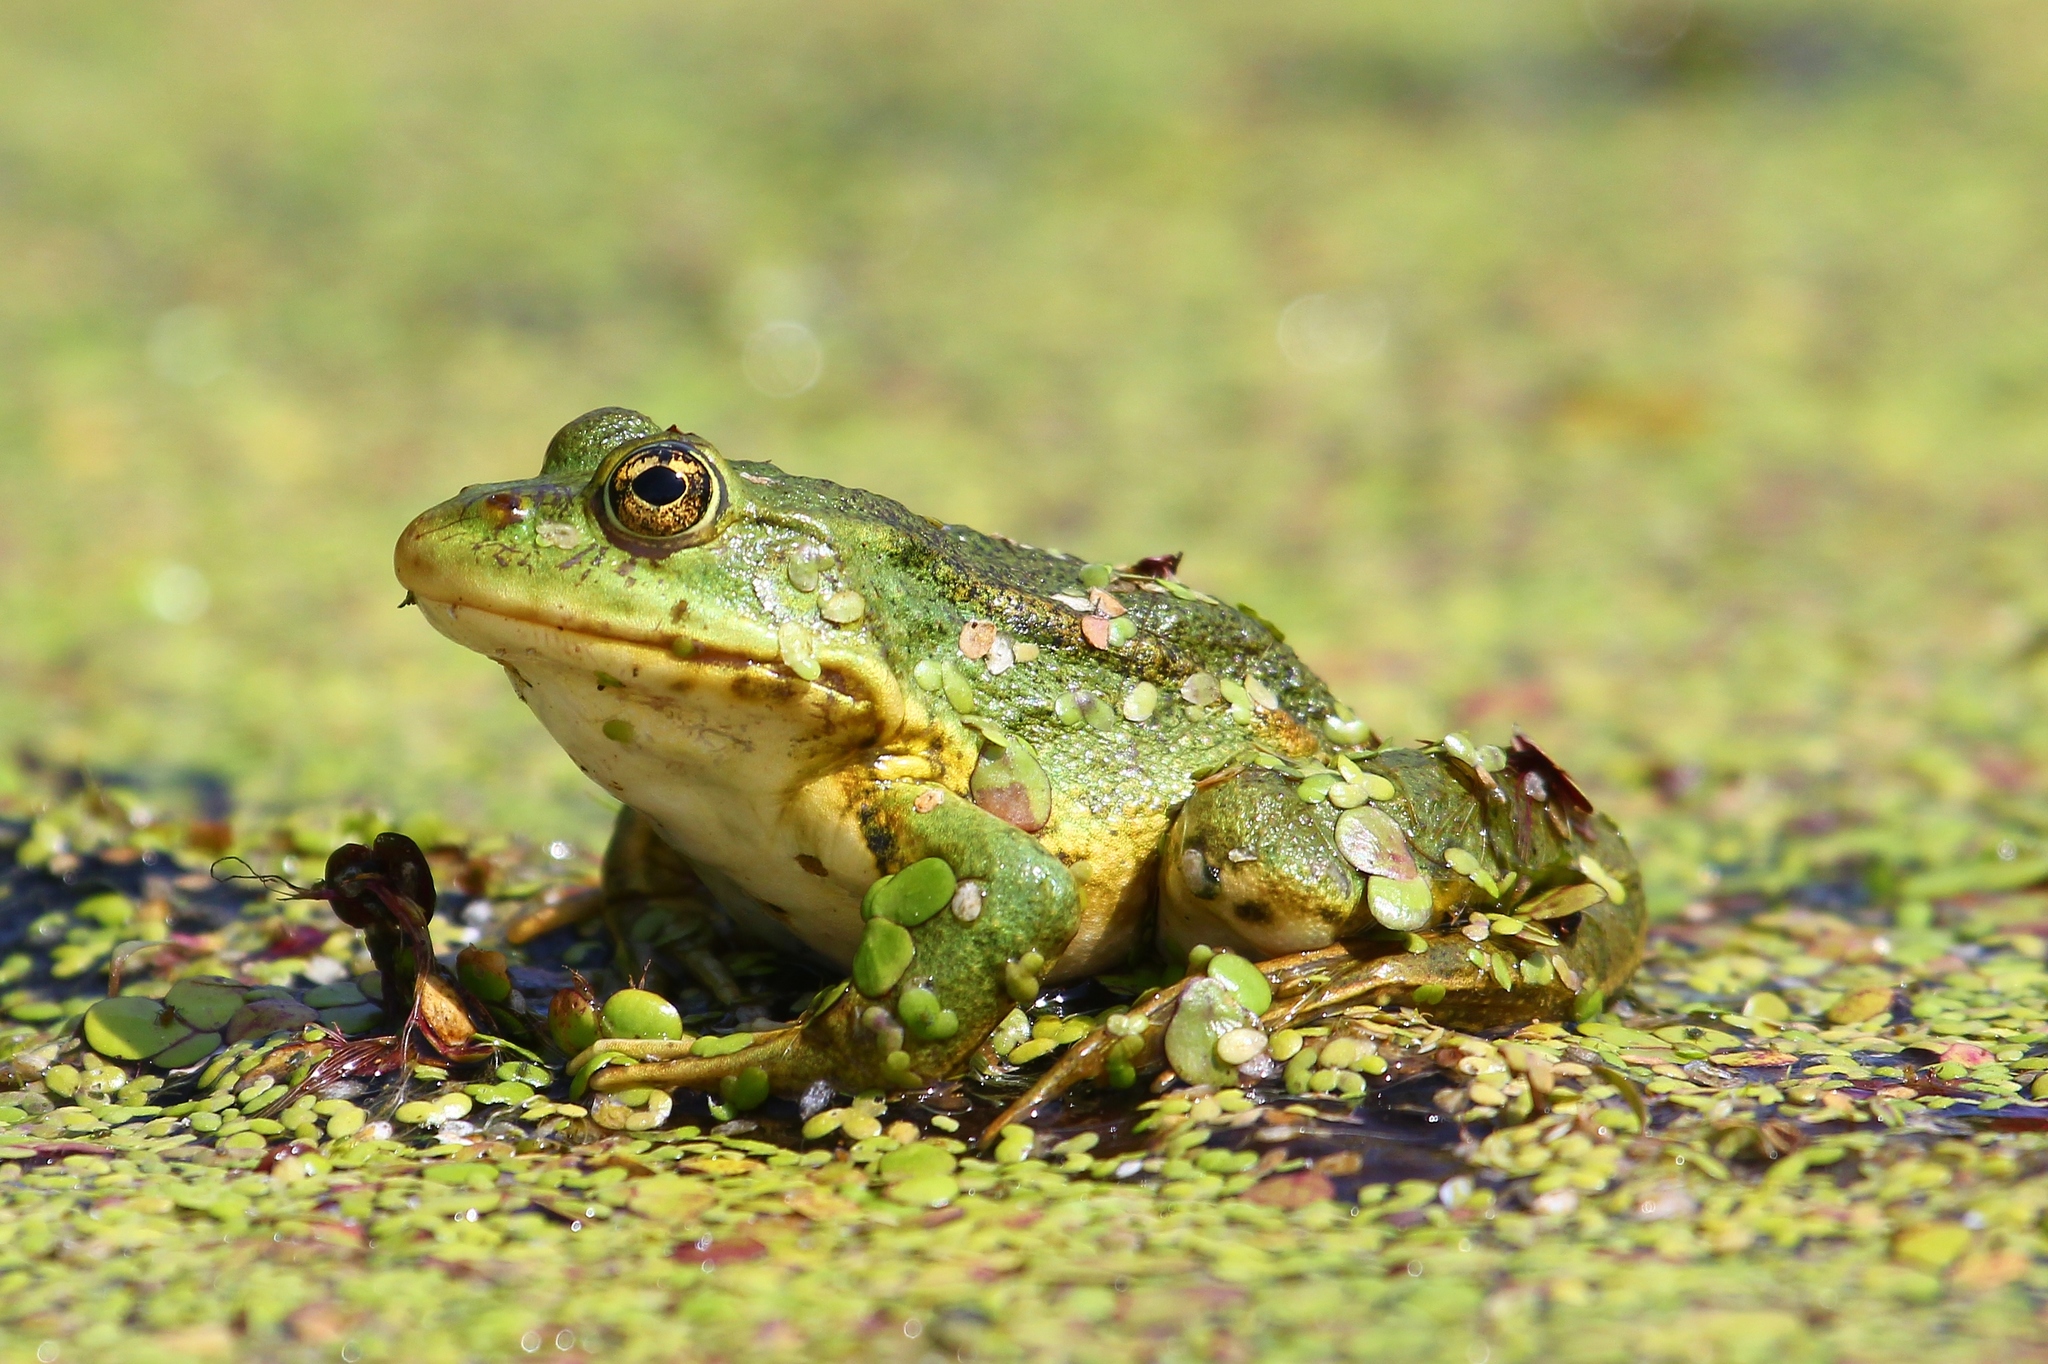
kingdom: Animalia
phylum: Chordata
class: Amphibia
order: Anura
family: Ranidae
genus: Pelophylax
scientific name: Pelophylax ridibundus
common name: Marsh frog
